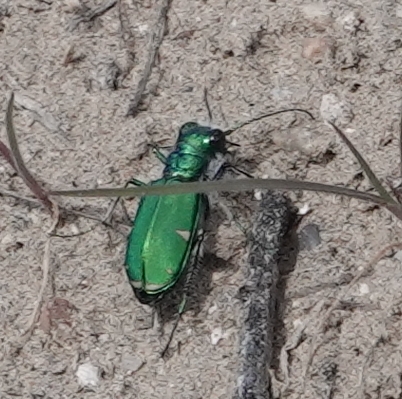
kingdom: Animalia
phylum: Arthropoda
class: Insecta
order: Coleoptera
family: Carabidae
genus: Cicindela
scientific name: Cicindela denverensis
